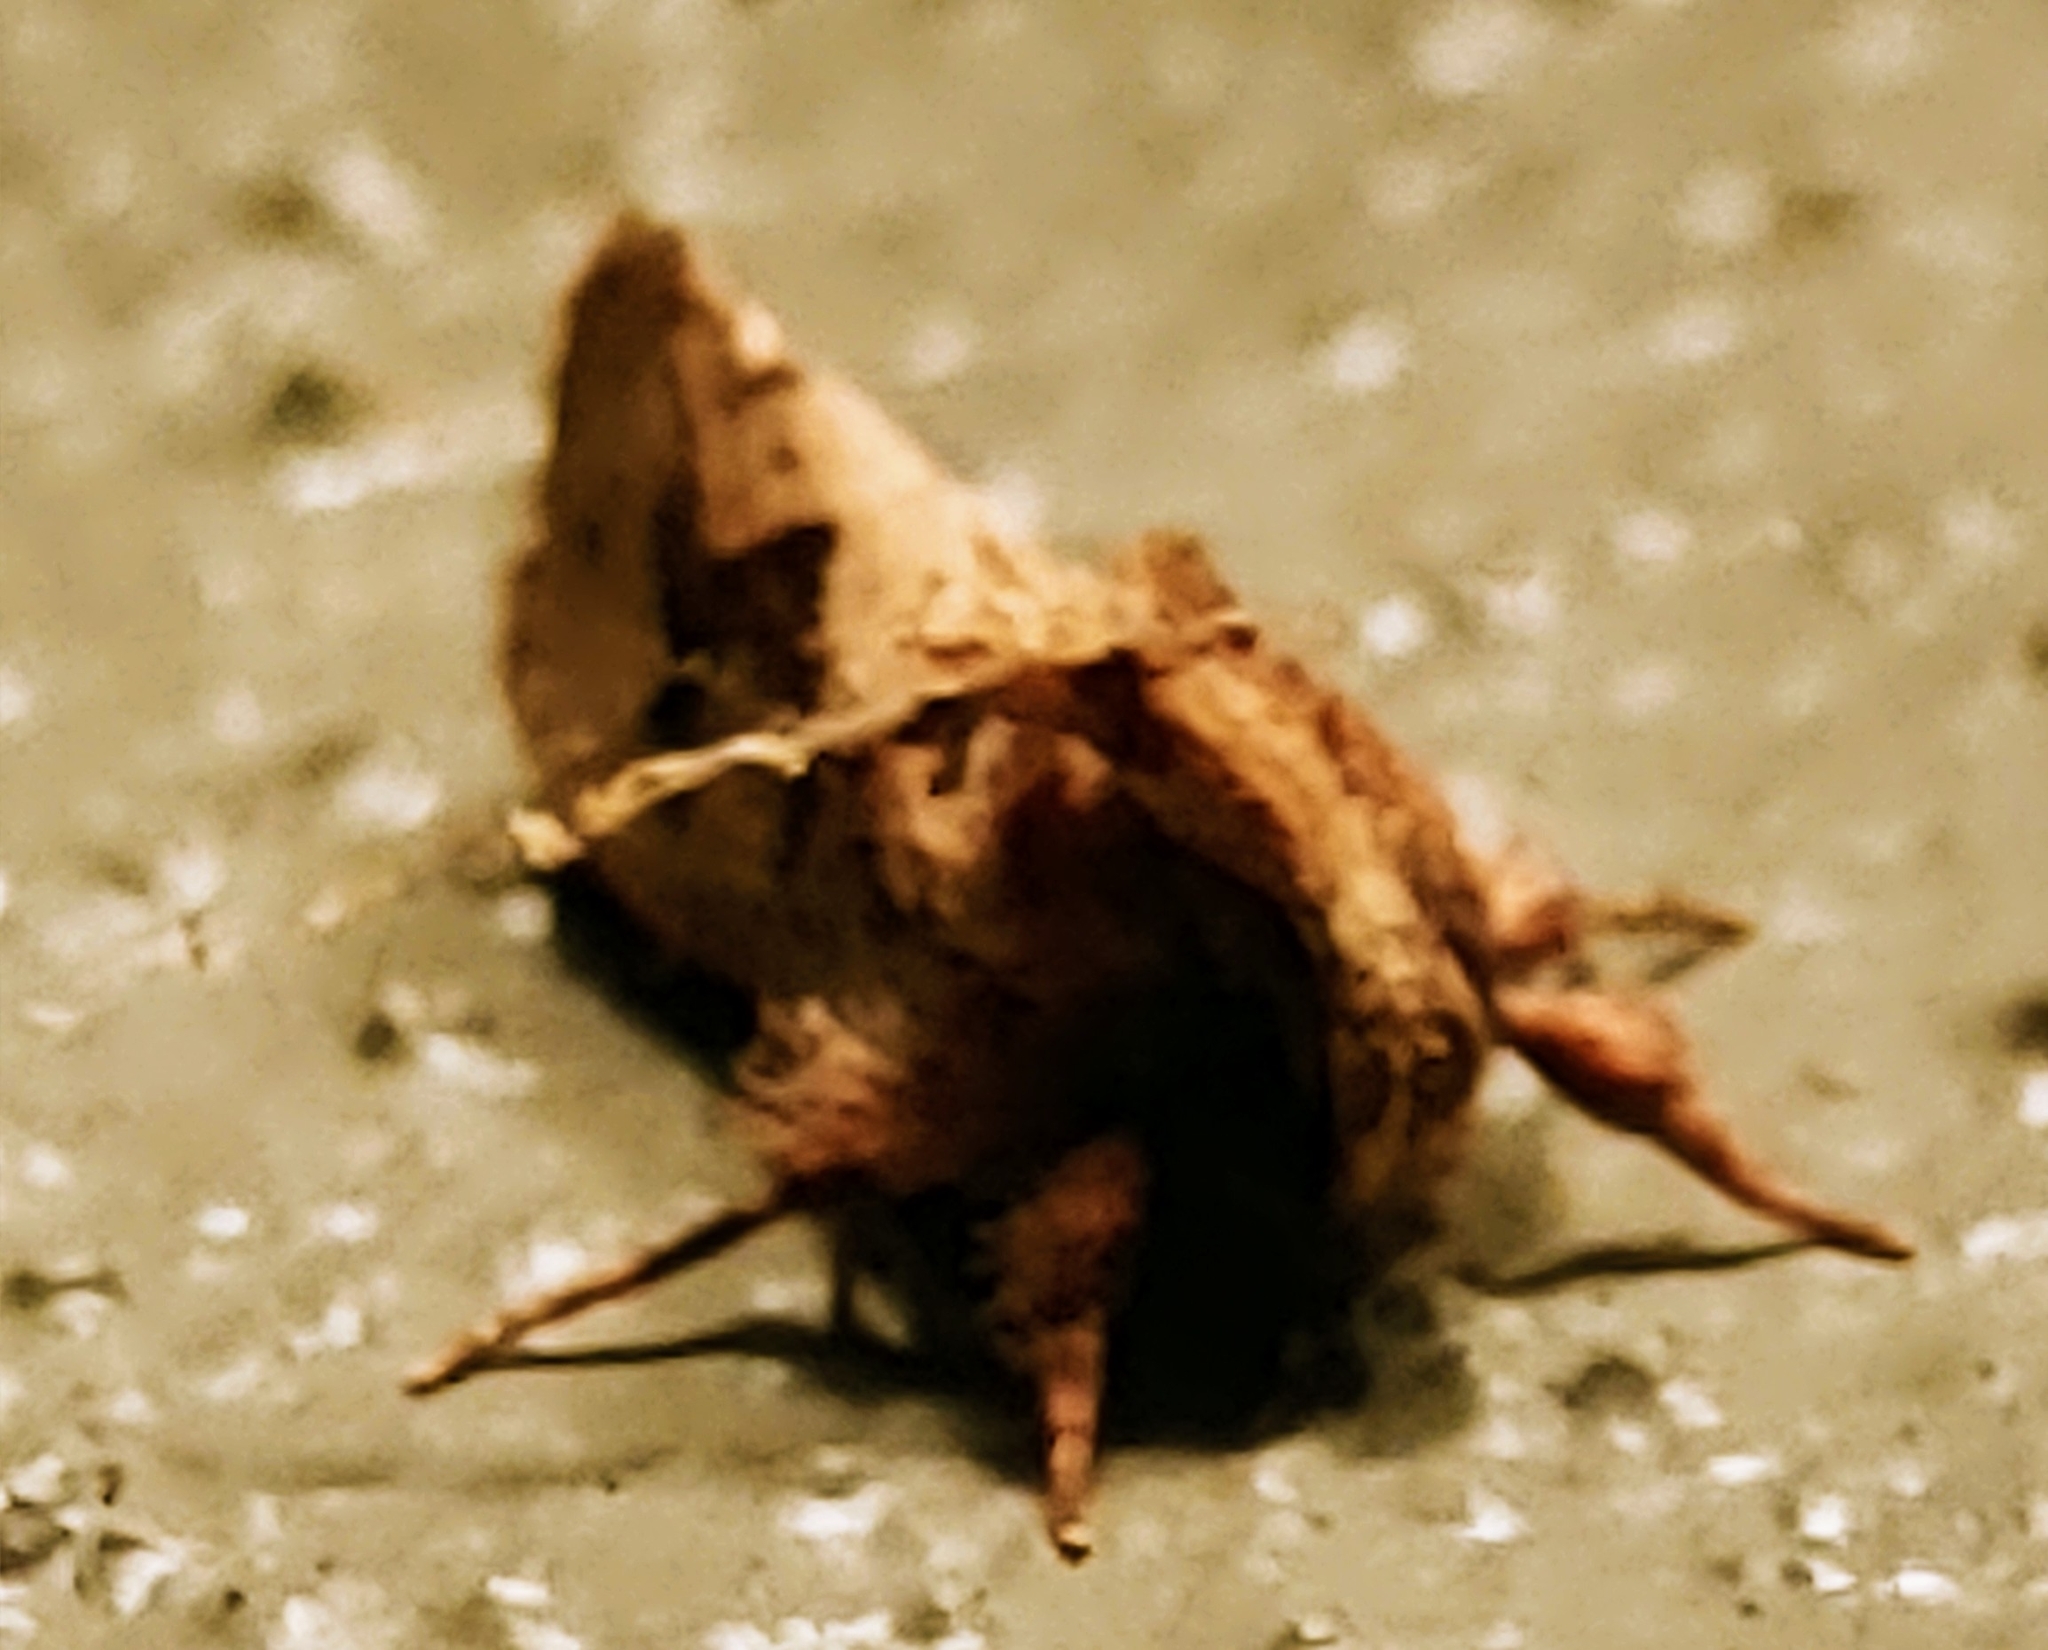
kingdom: Animalia
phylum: Arthropoda
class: Insecta
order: Lepidoptera
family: Tineidae
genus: Acrolophus
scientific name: Acrolophus walsinghami
